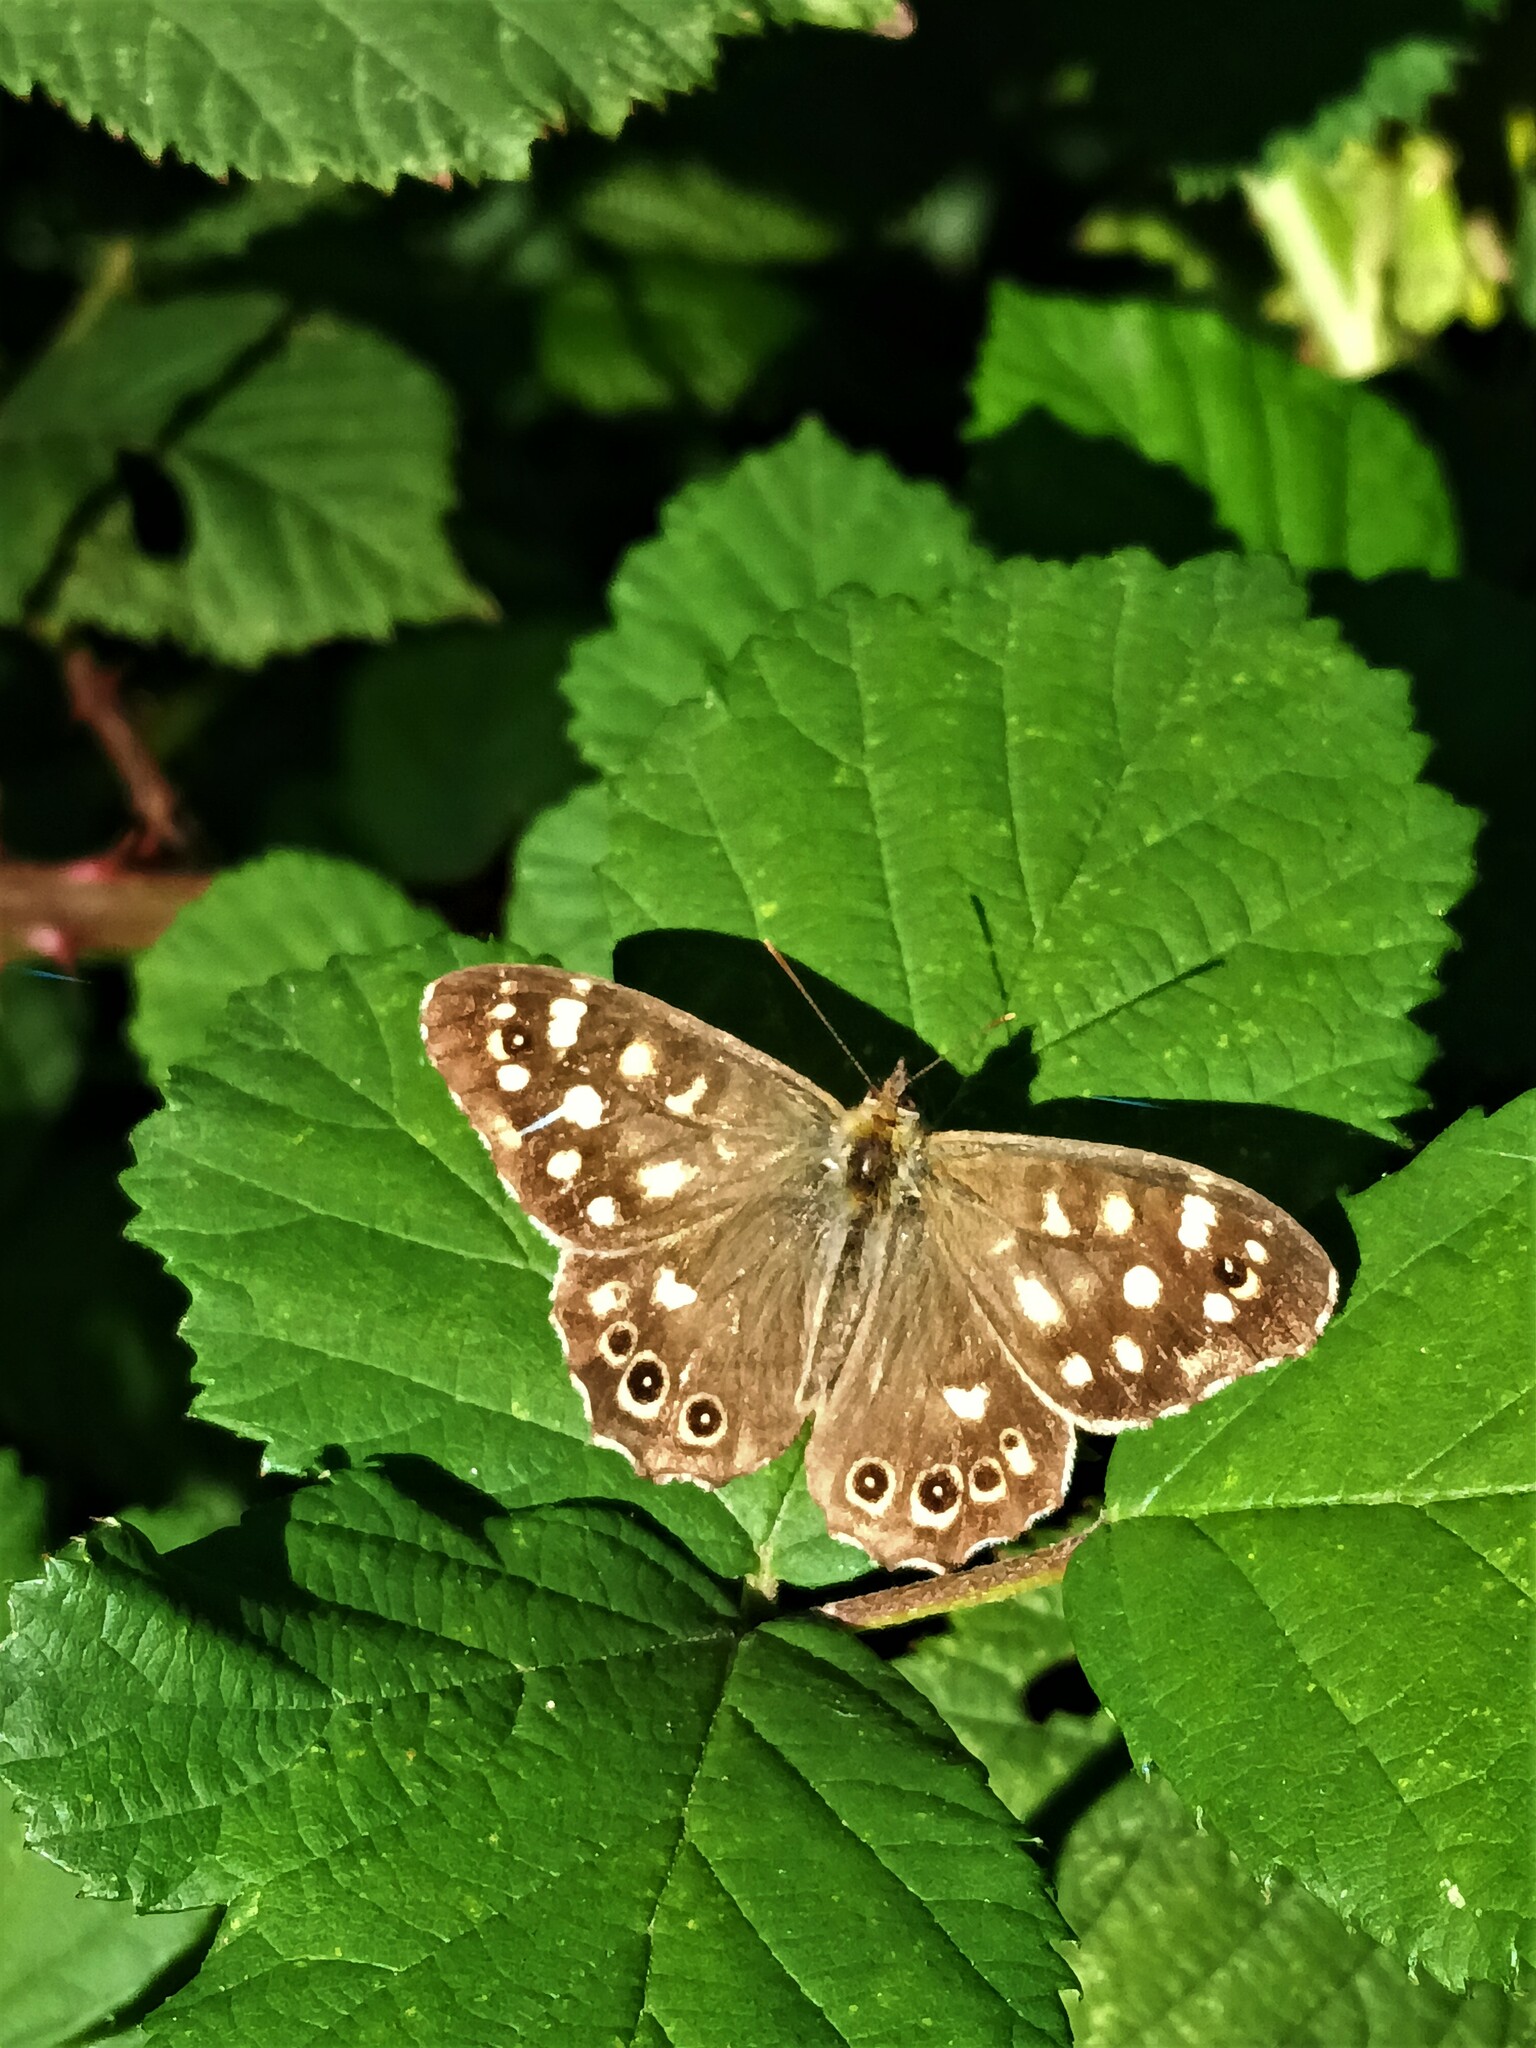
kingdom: Animalia
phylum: Arthropoda
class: Insecta
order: Lepidoptera
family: Nymphalidae
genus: Pararge
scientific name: Pararge aegeria
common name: Speckled wood
